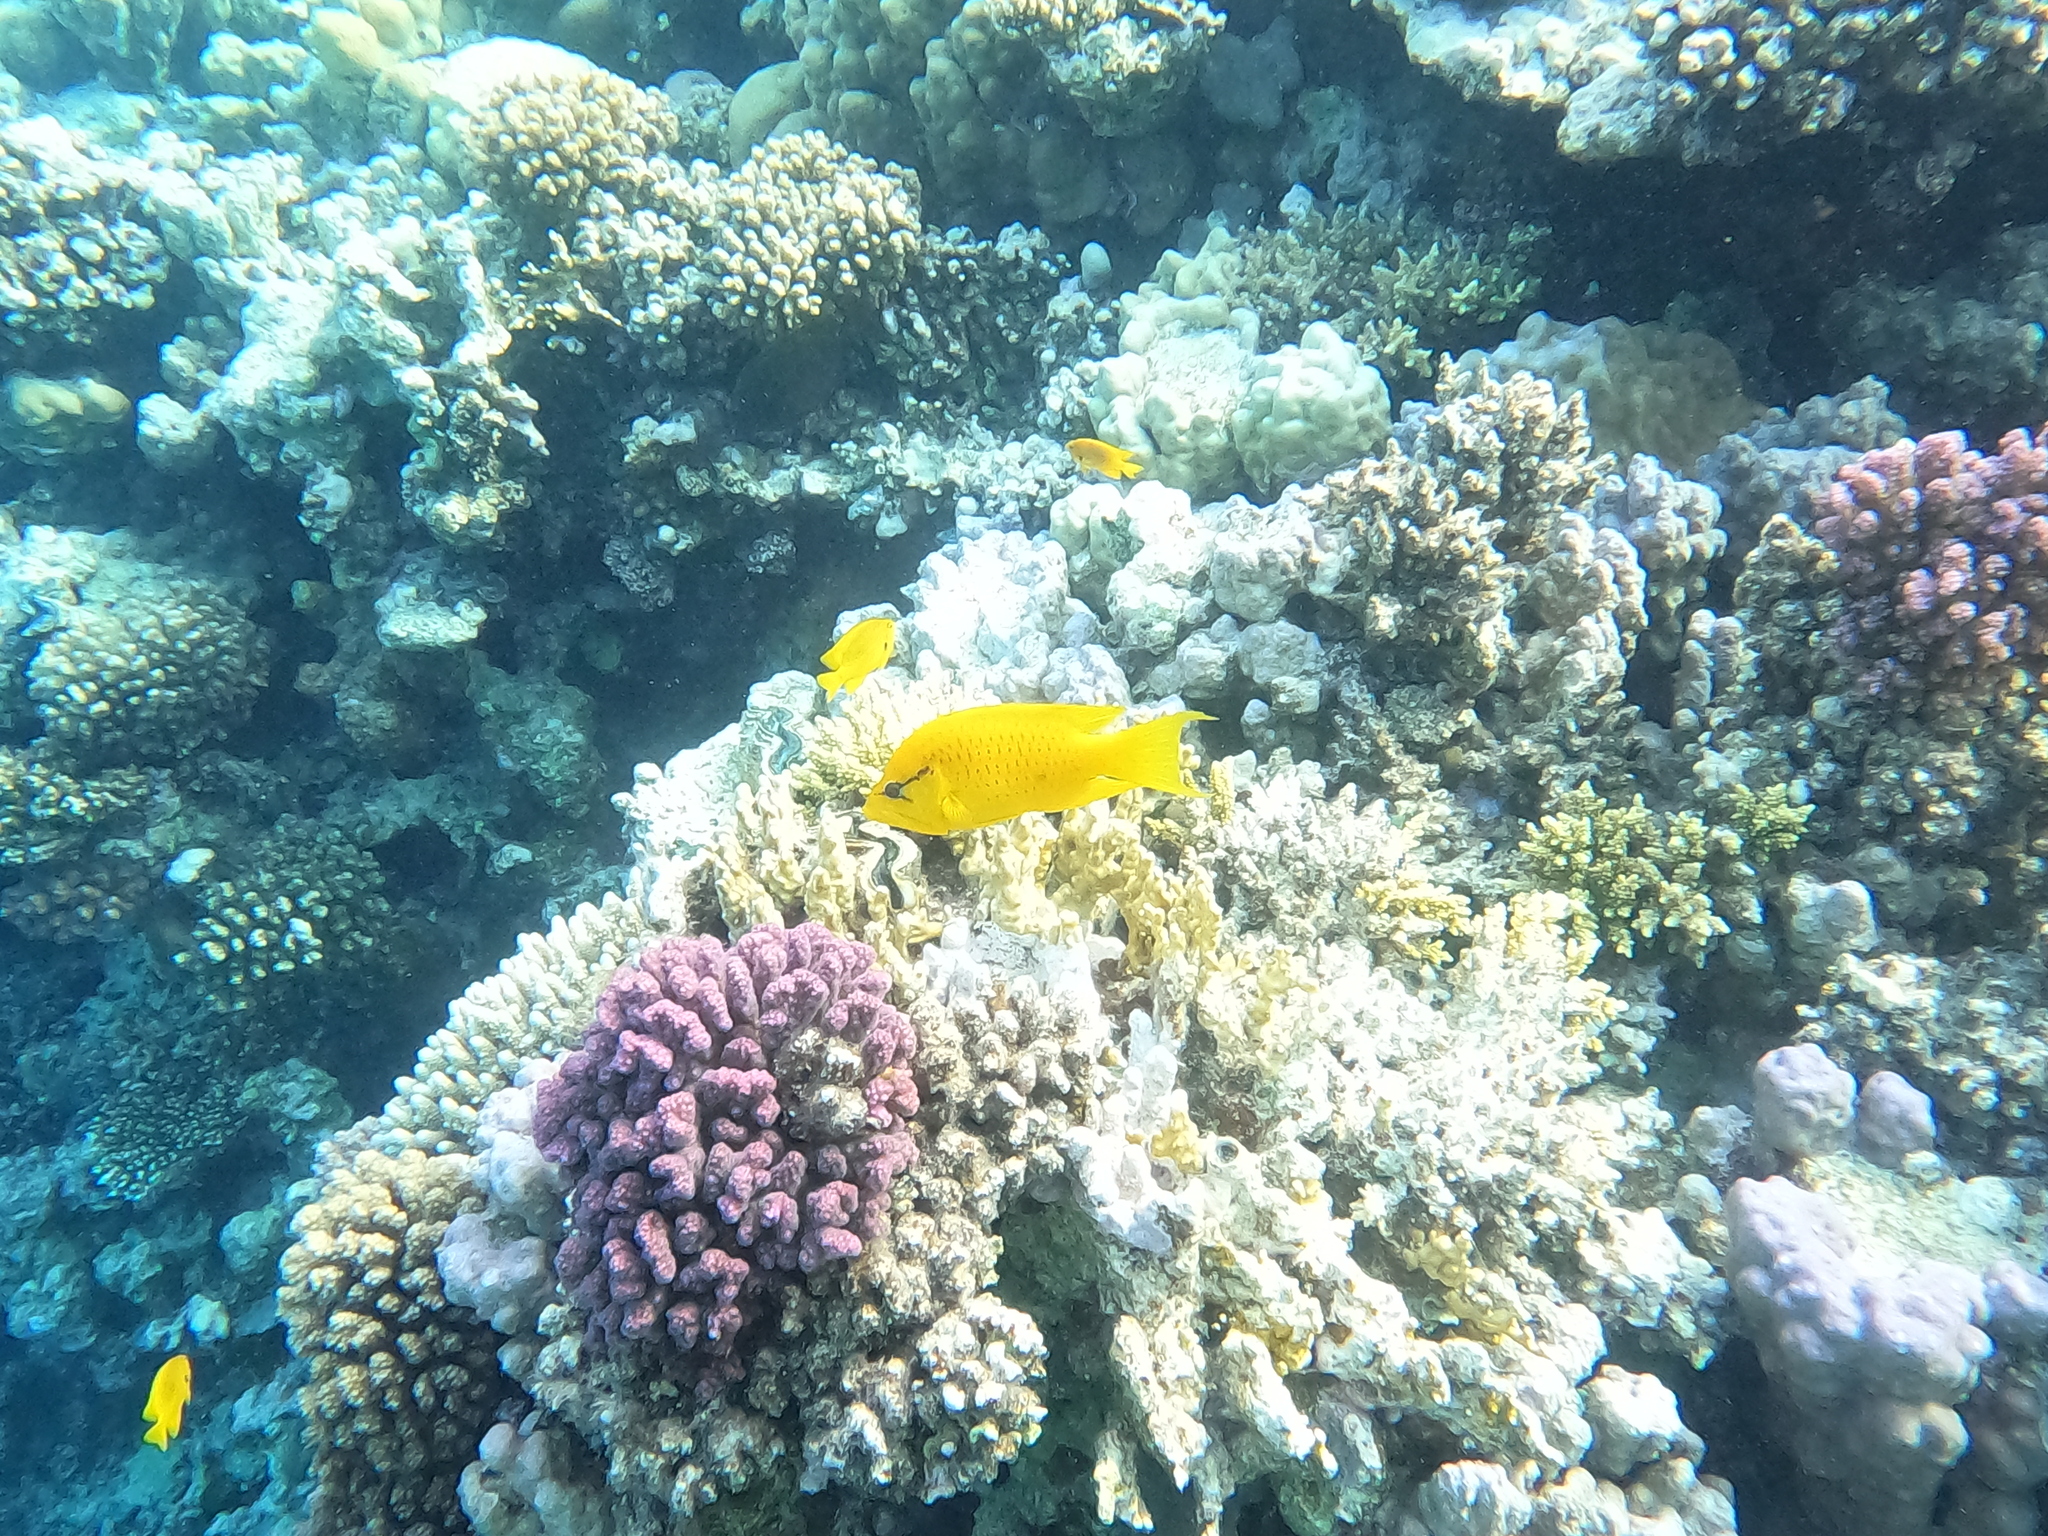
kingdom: Animalia
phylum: Chordata
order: Perciformes
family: Labridae
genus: Epibulus
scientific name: Epibulus insidiator
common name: Slingjaw wrasse
